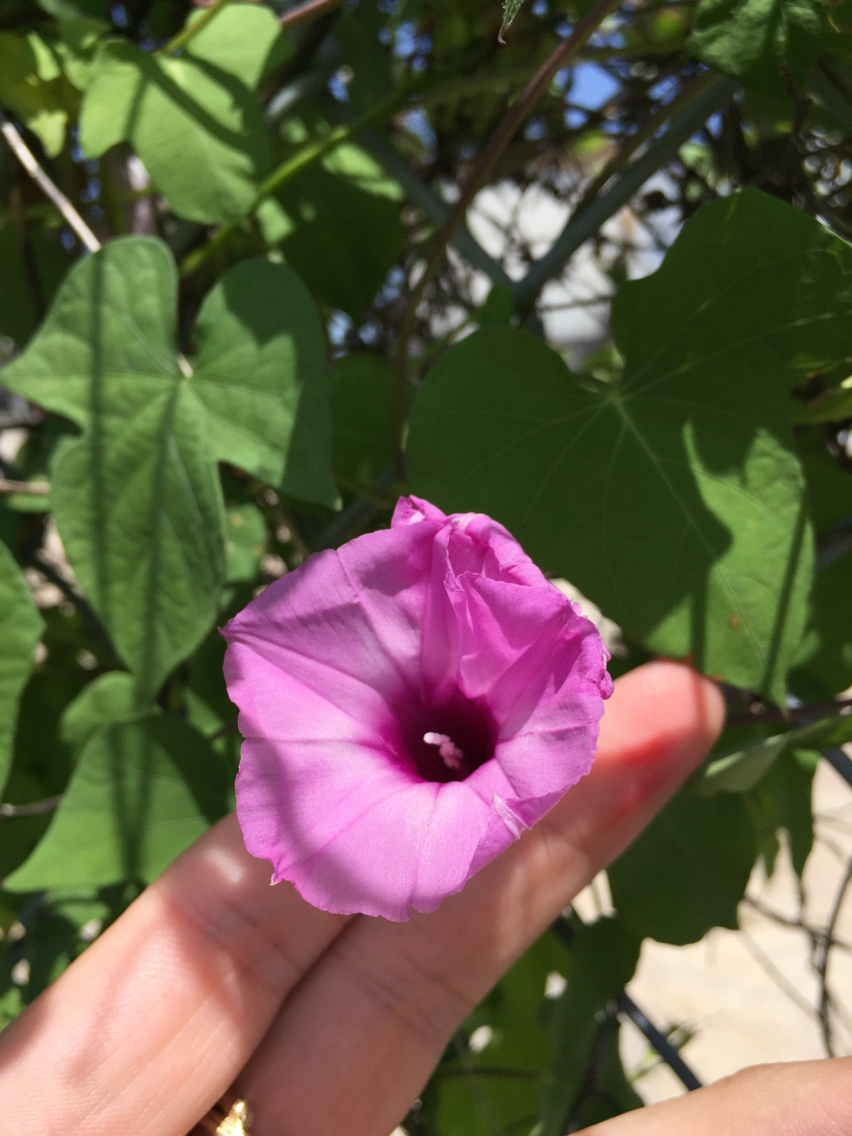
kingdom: Plantae
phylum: Tracheophyta
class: Magnoliopsida
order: Solanales
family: Convolvulaceae
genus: Ipomoea
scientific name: Ipomoea cordatotriloba
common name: Cotton morning glory
